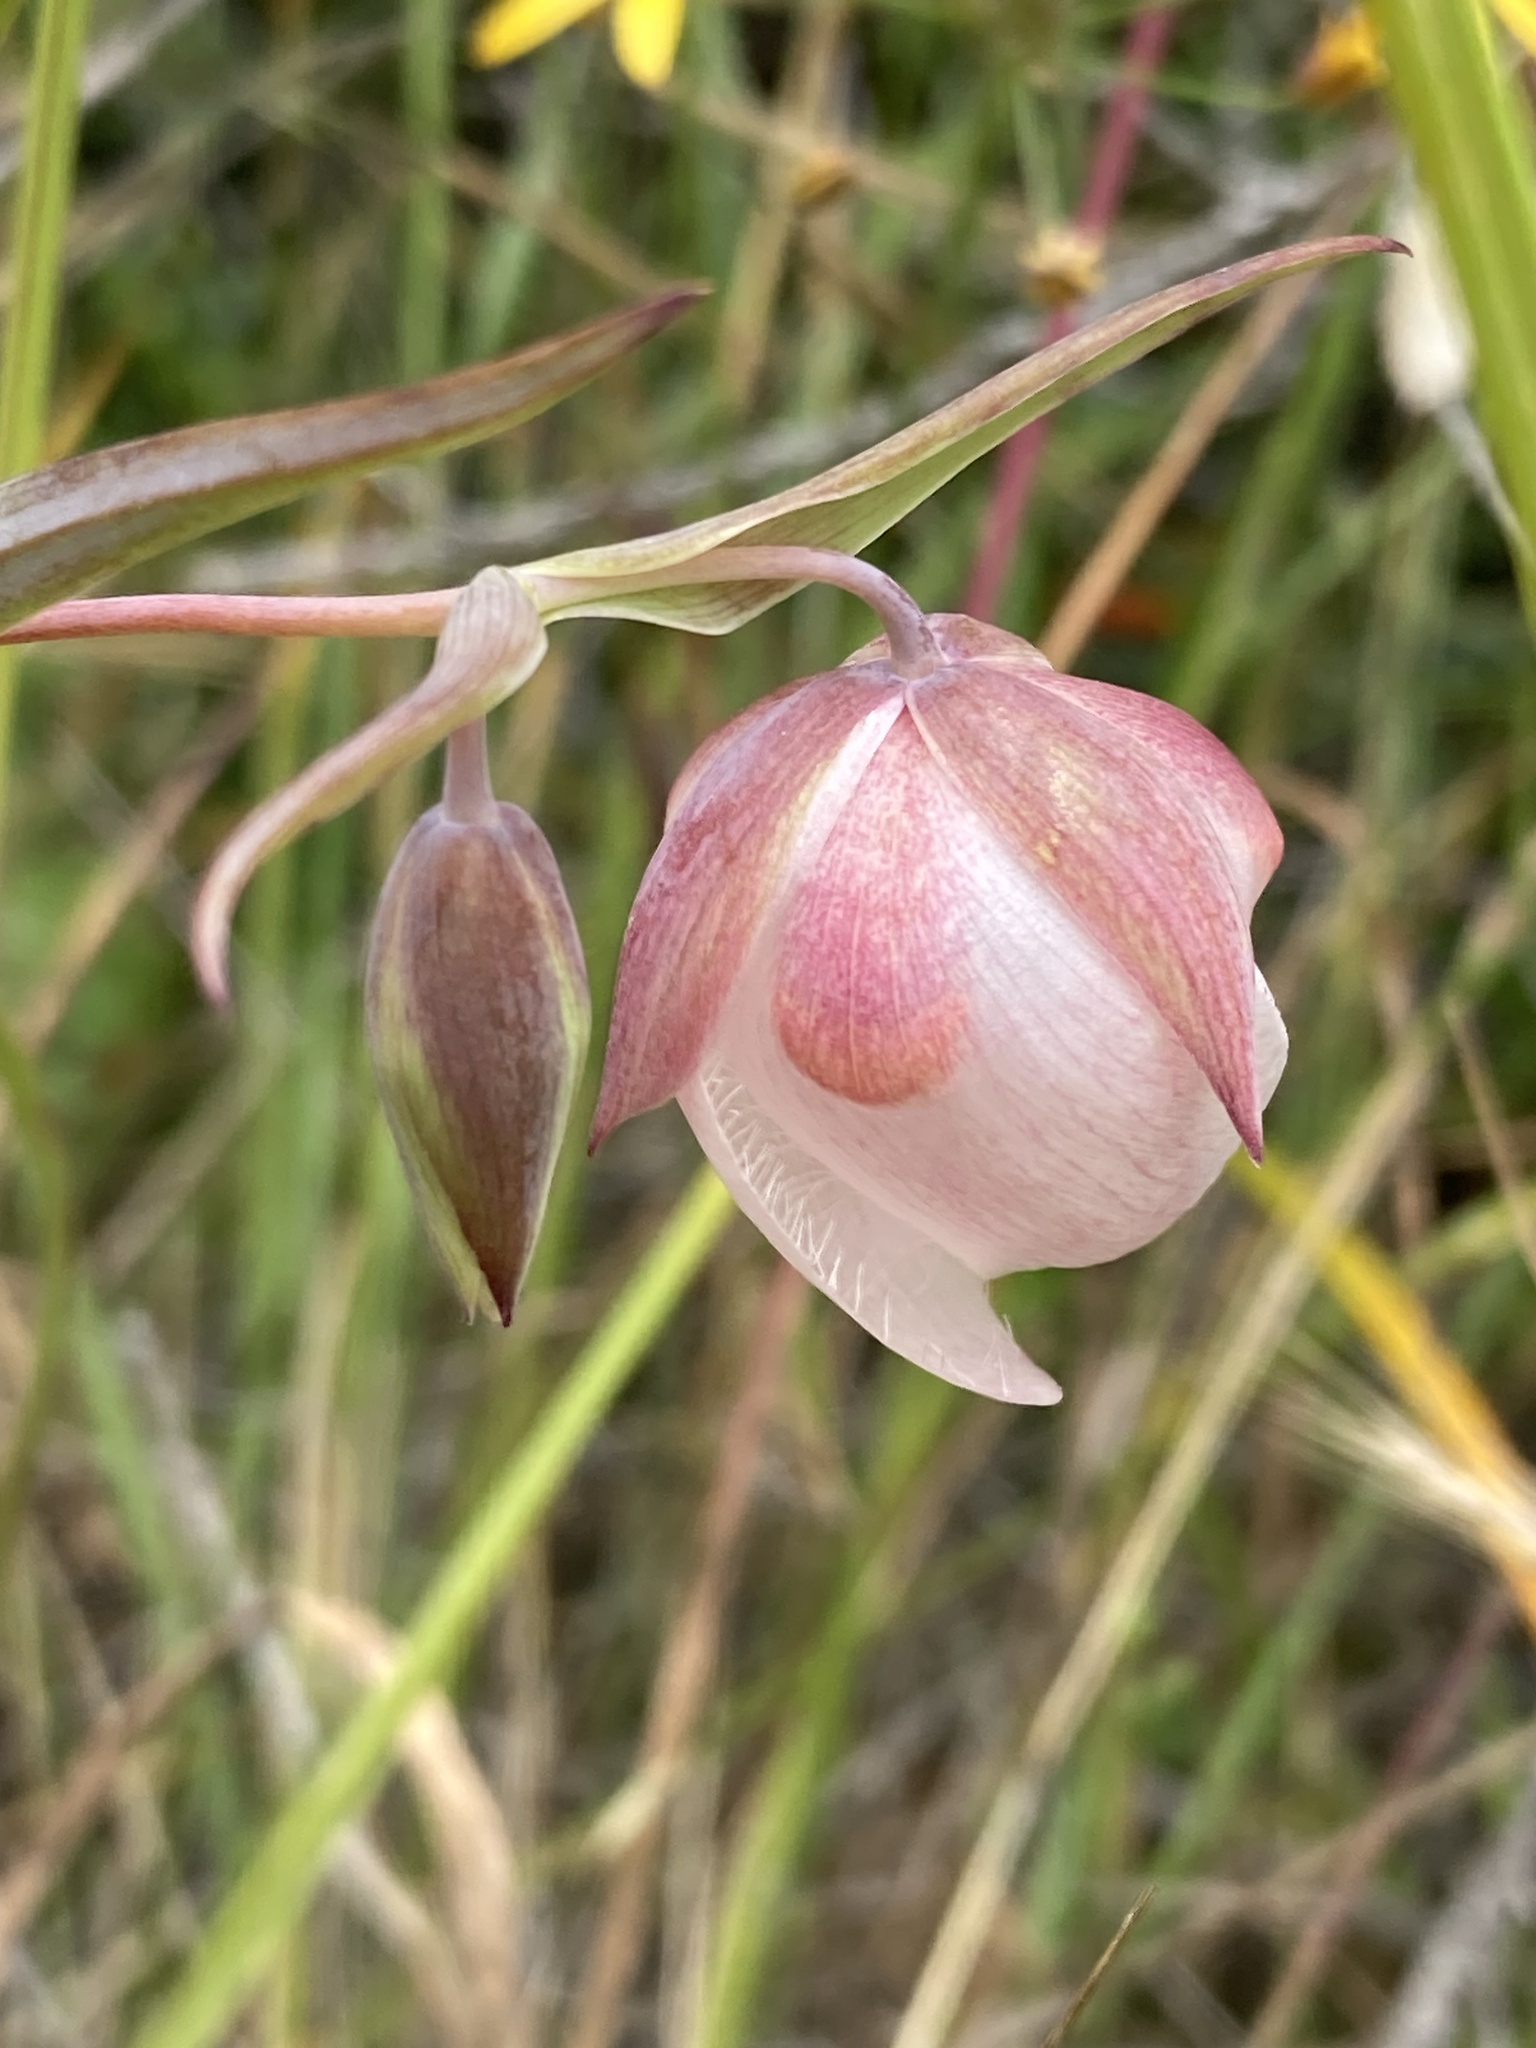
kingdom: Plantae
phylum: Tracheophyta
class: Liliopsida
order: Liliales
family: Liliaceae
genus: Calochortus
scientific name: Calochortus albus
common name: Fairy-lantern
